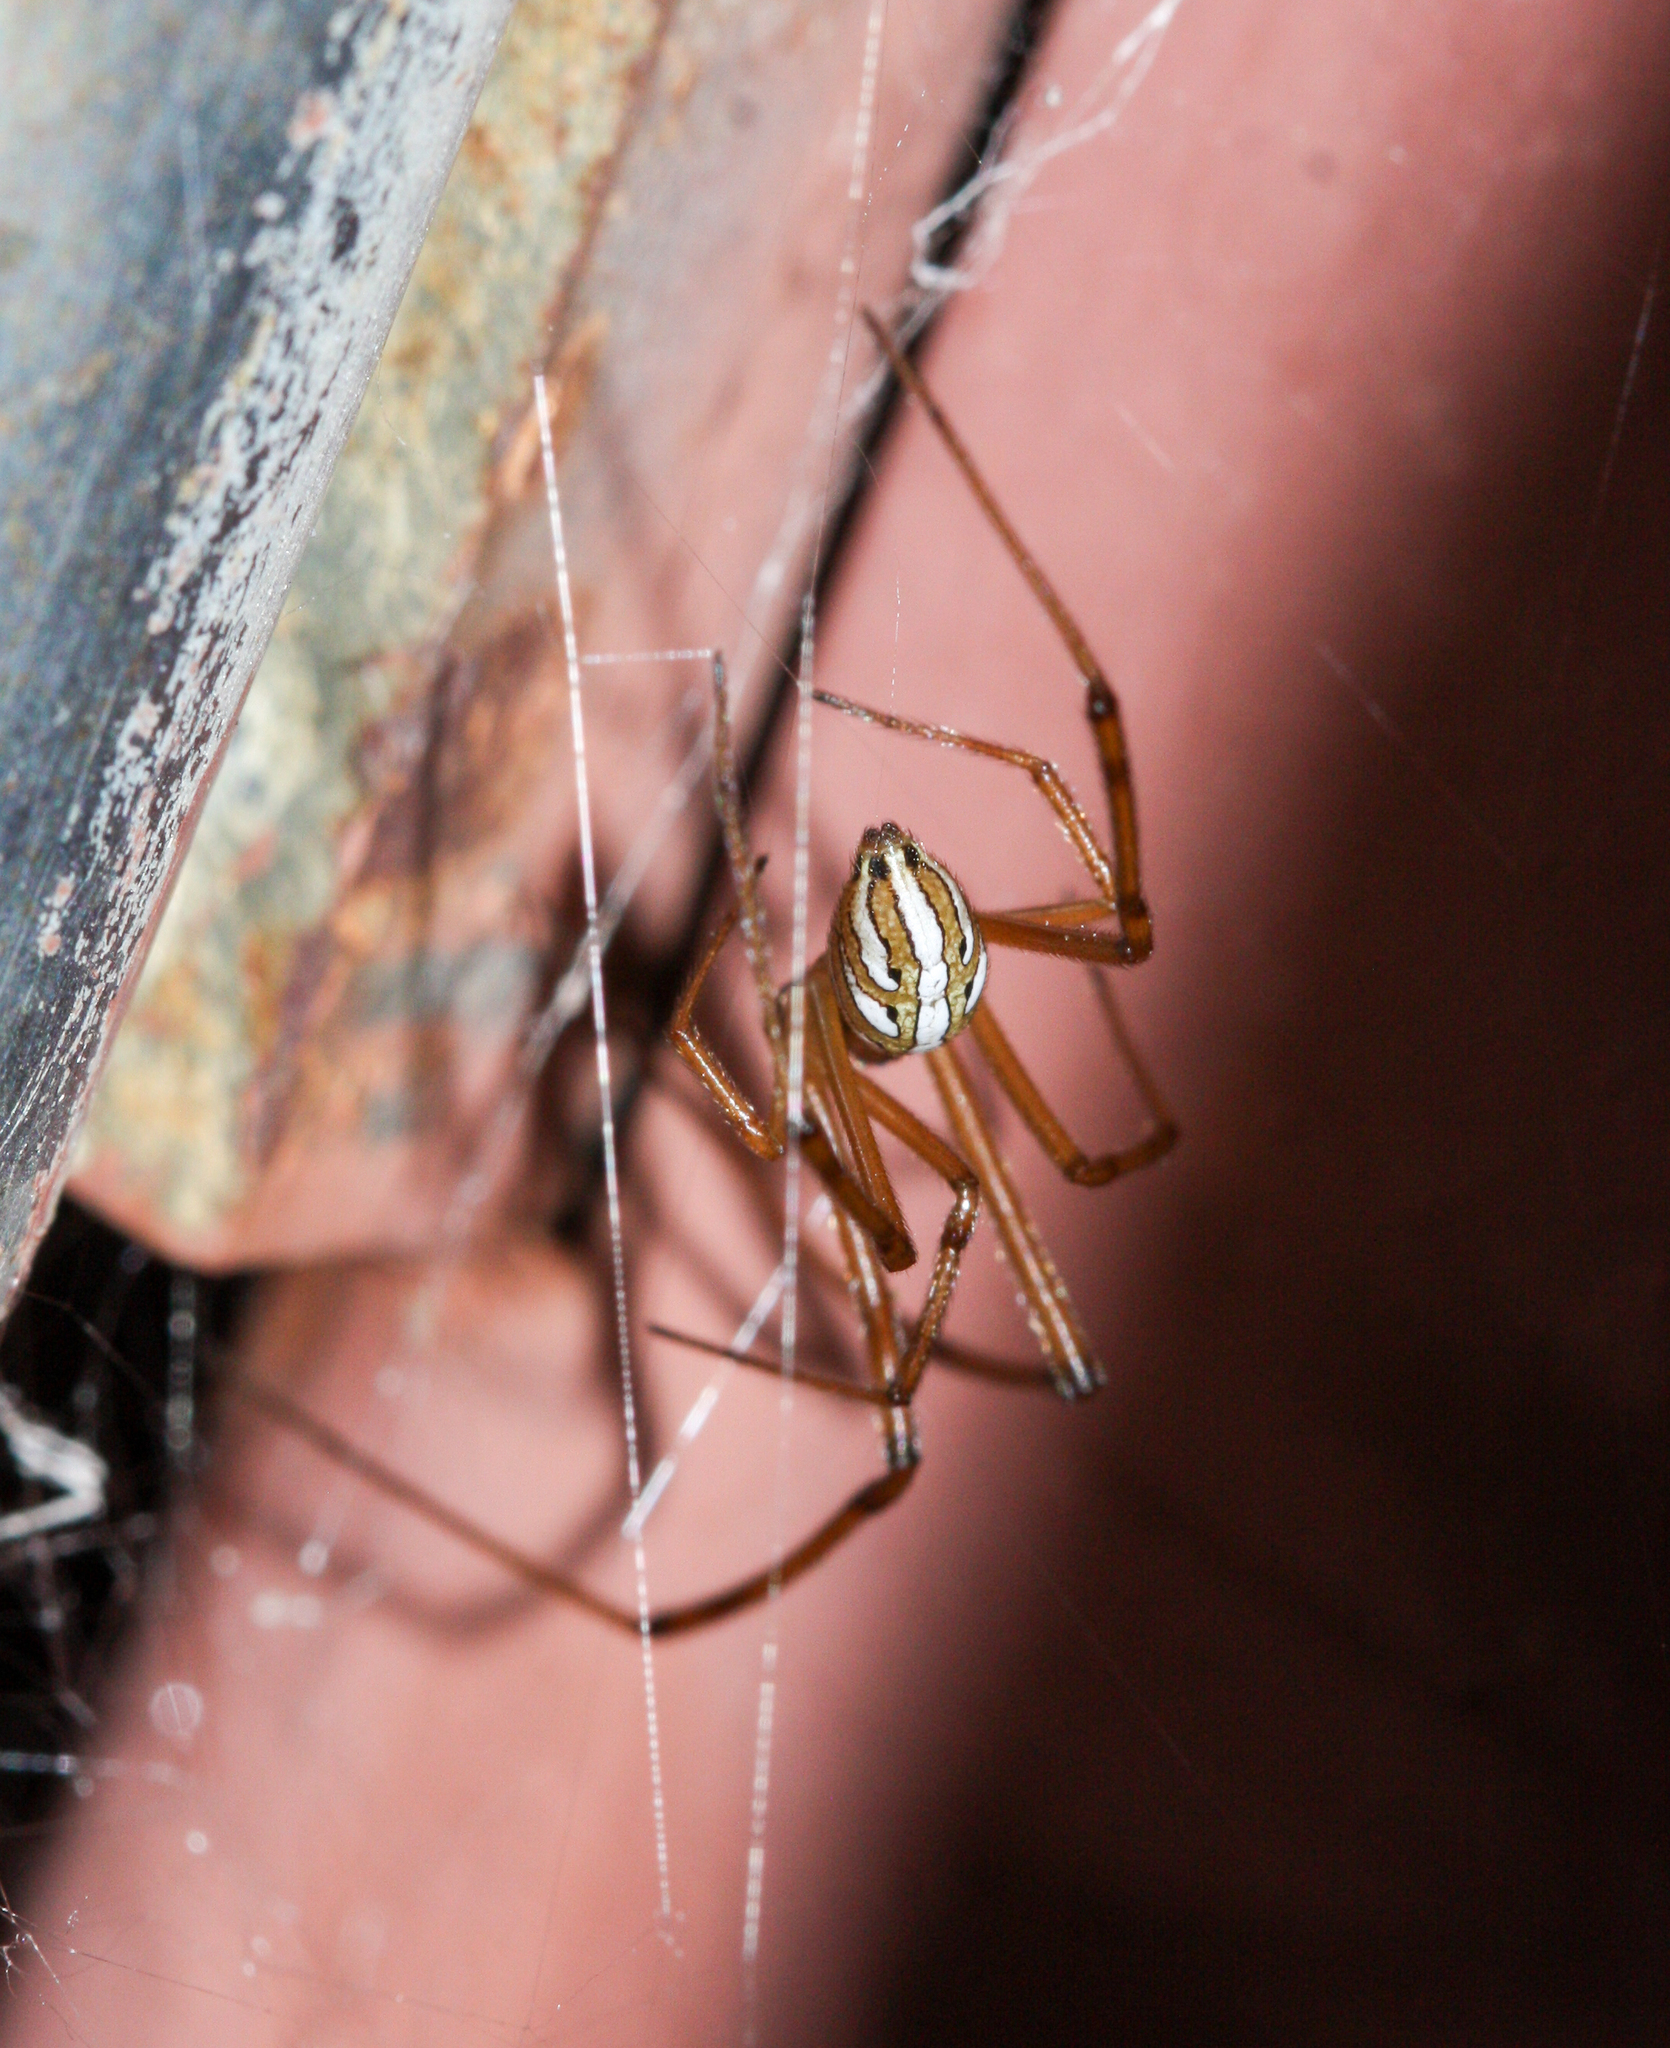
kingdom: Animalia
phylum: Arthropoda
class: Arachnida
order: Araneae
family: Theridiidae
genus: Latrodectus
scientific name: Latrodectus hesperus
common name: Western black widow
